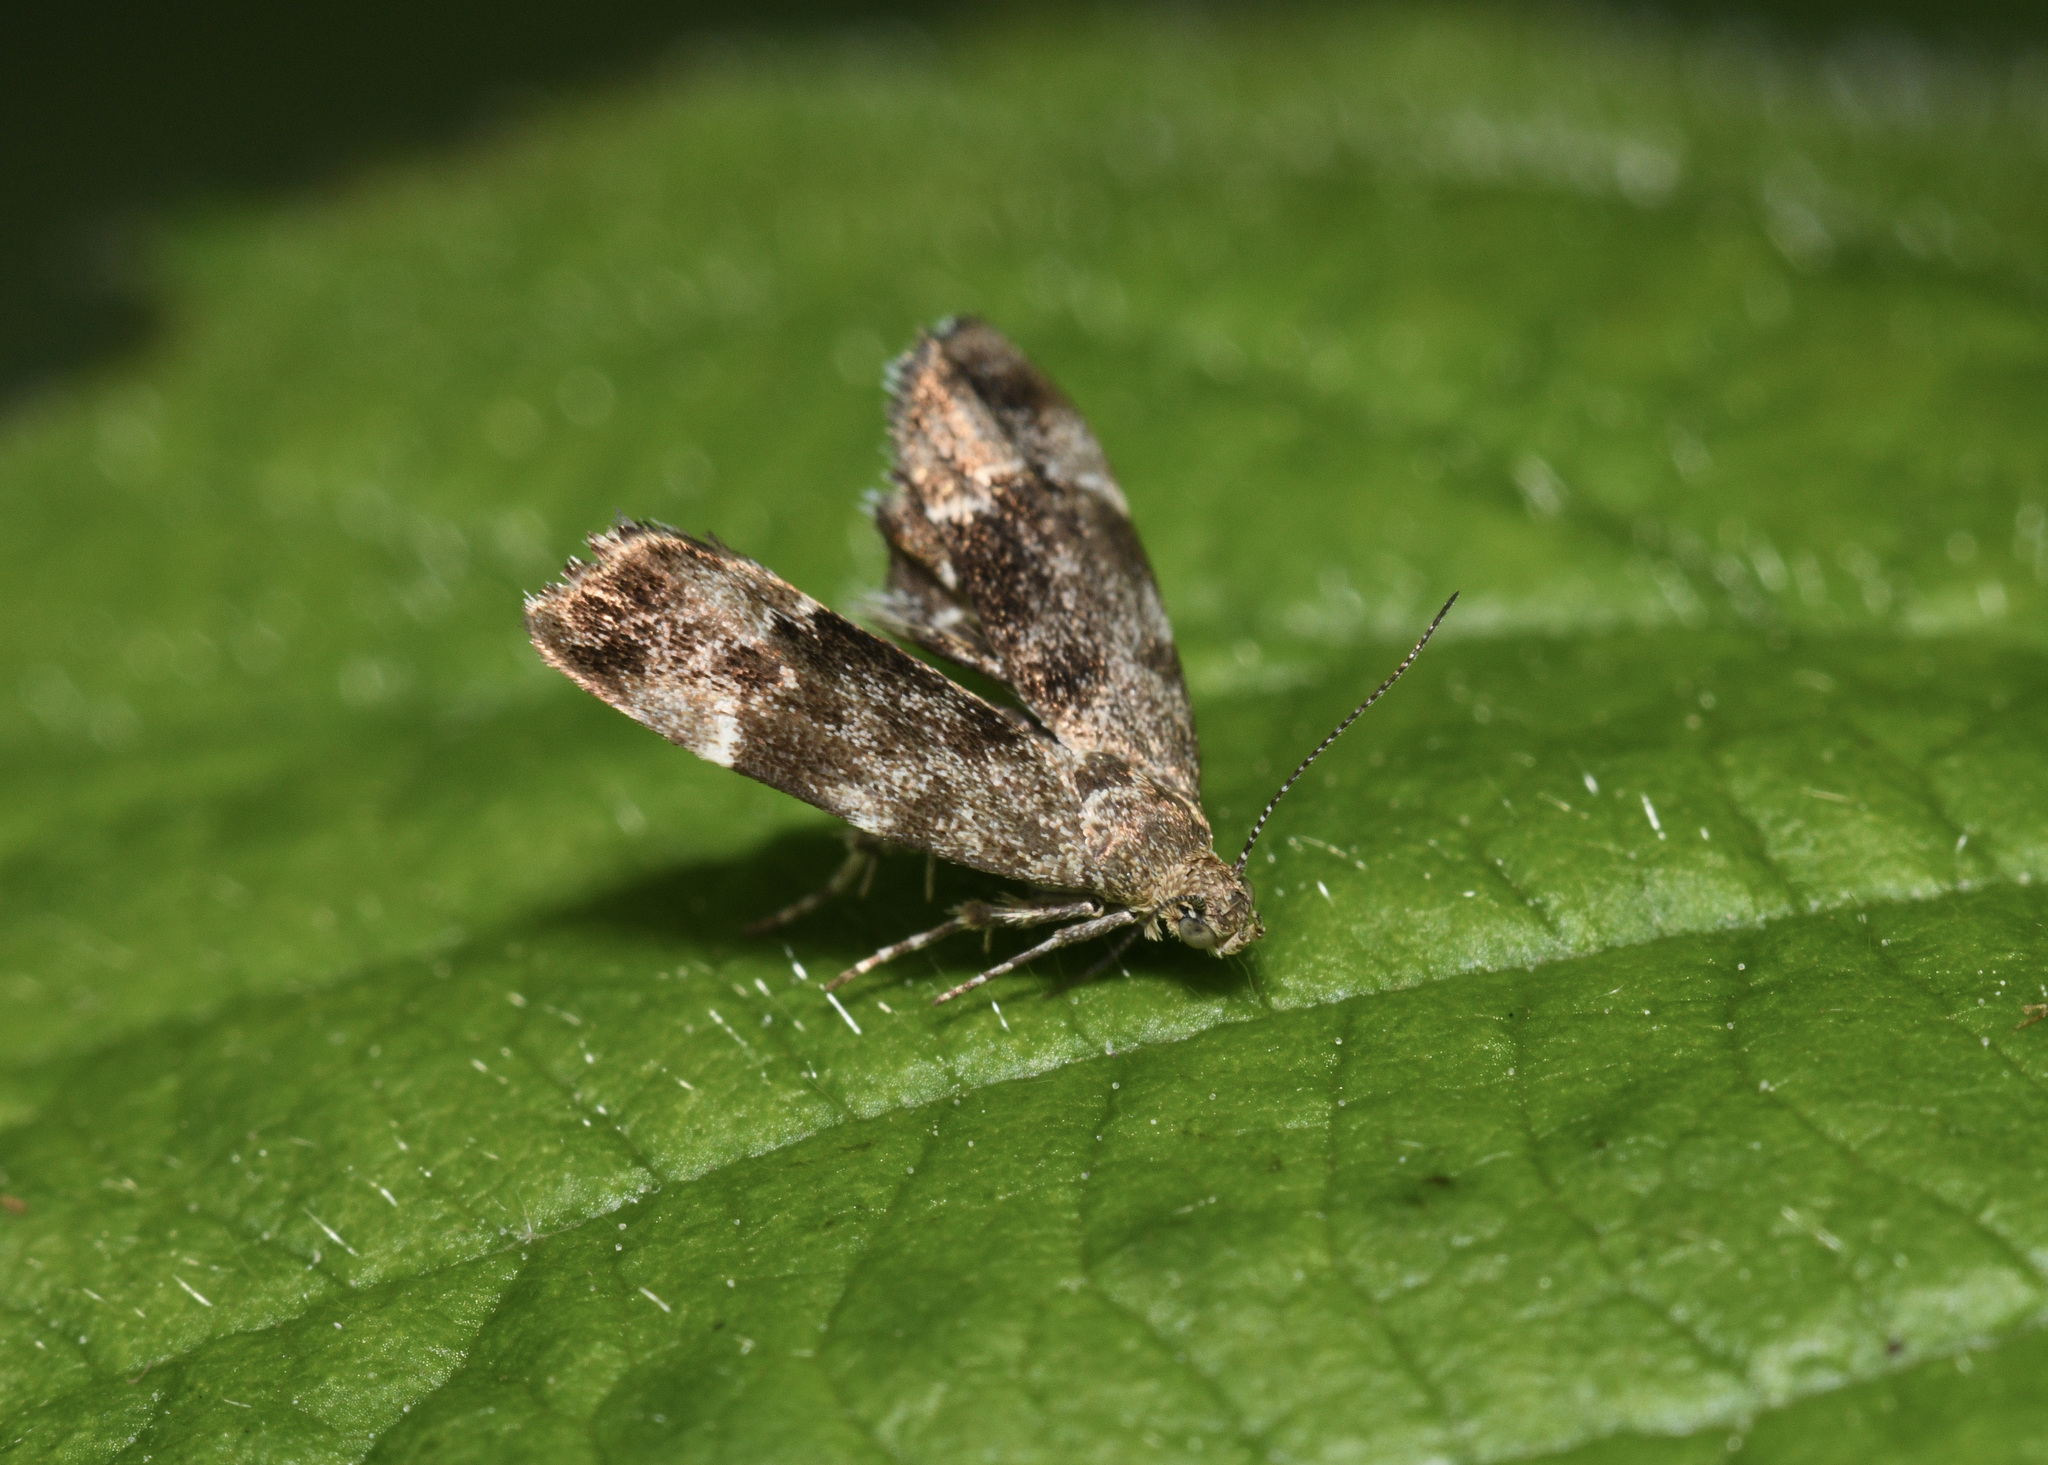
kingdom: Animalia
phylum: Arthropoda
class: Insecta
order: Lepidoptera
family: Choreutidae
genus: Anthophila
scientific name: Anthophila fabriciana
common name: Nettle-tap
